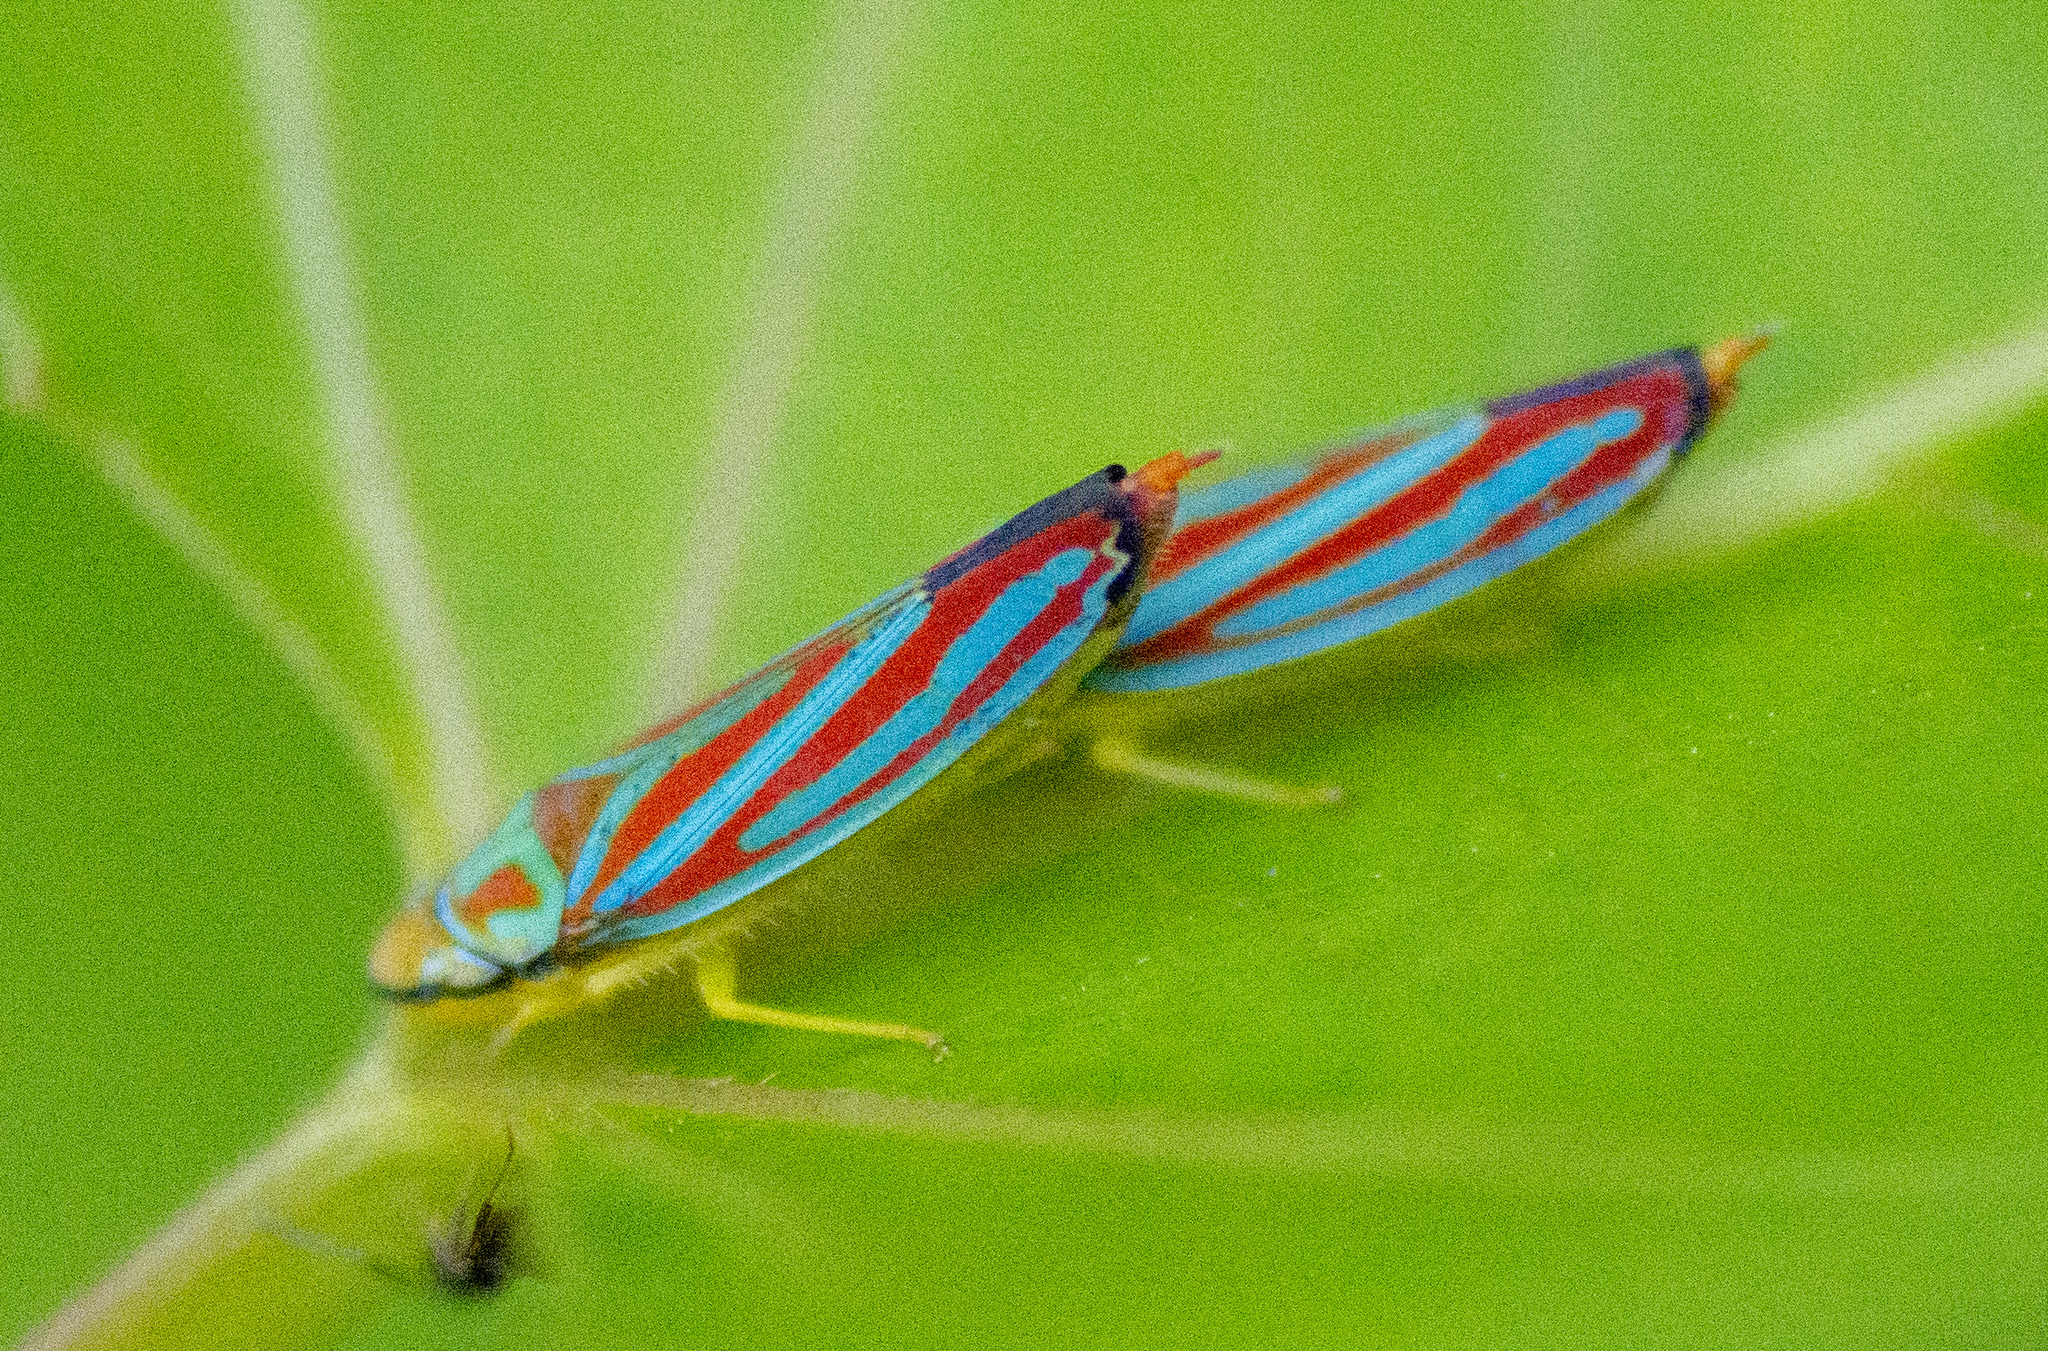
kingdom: Animalia
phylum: Arthropoda
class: Insecta
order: Hemiptera
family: Cicadellidae
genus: Graphocephala
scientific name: Graphocephala coccinea
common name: Candy-striped leafhopper
